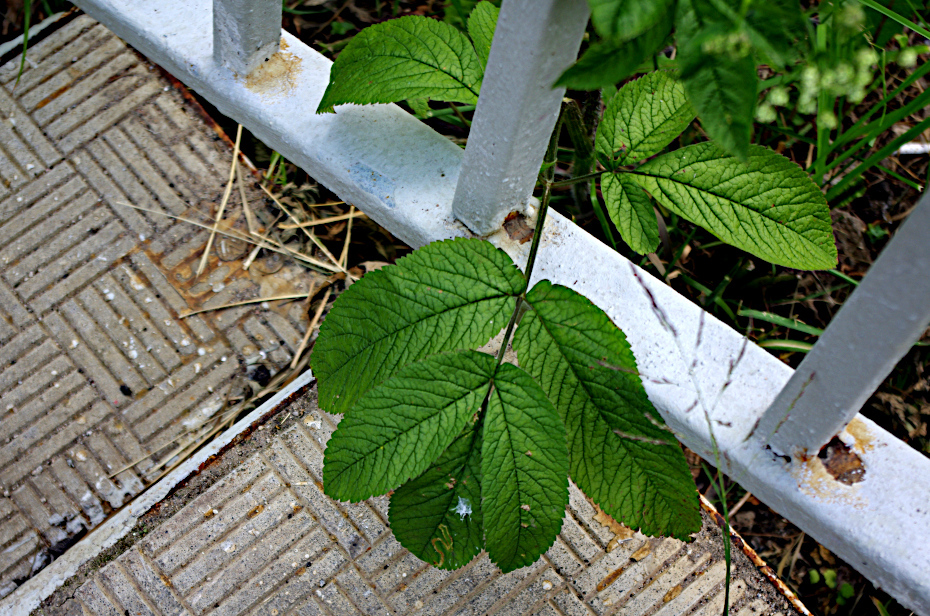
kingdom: Plantae
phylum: Tracheophyta
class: Magnoliopsida
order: Apiales
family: Apiaceae
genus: Chaerophyllum
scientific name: Chaerophyllum aromaticum
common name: Broadleaf chervil
